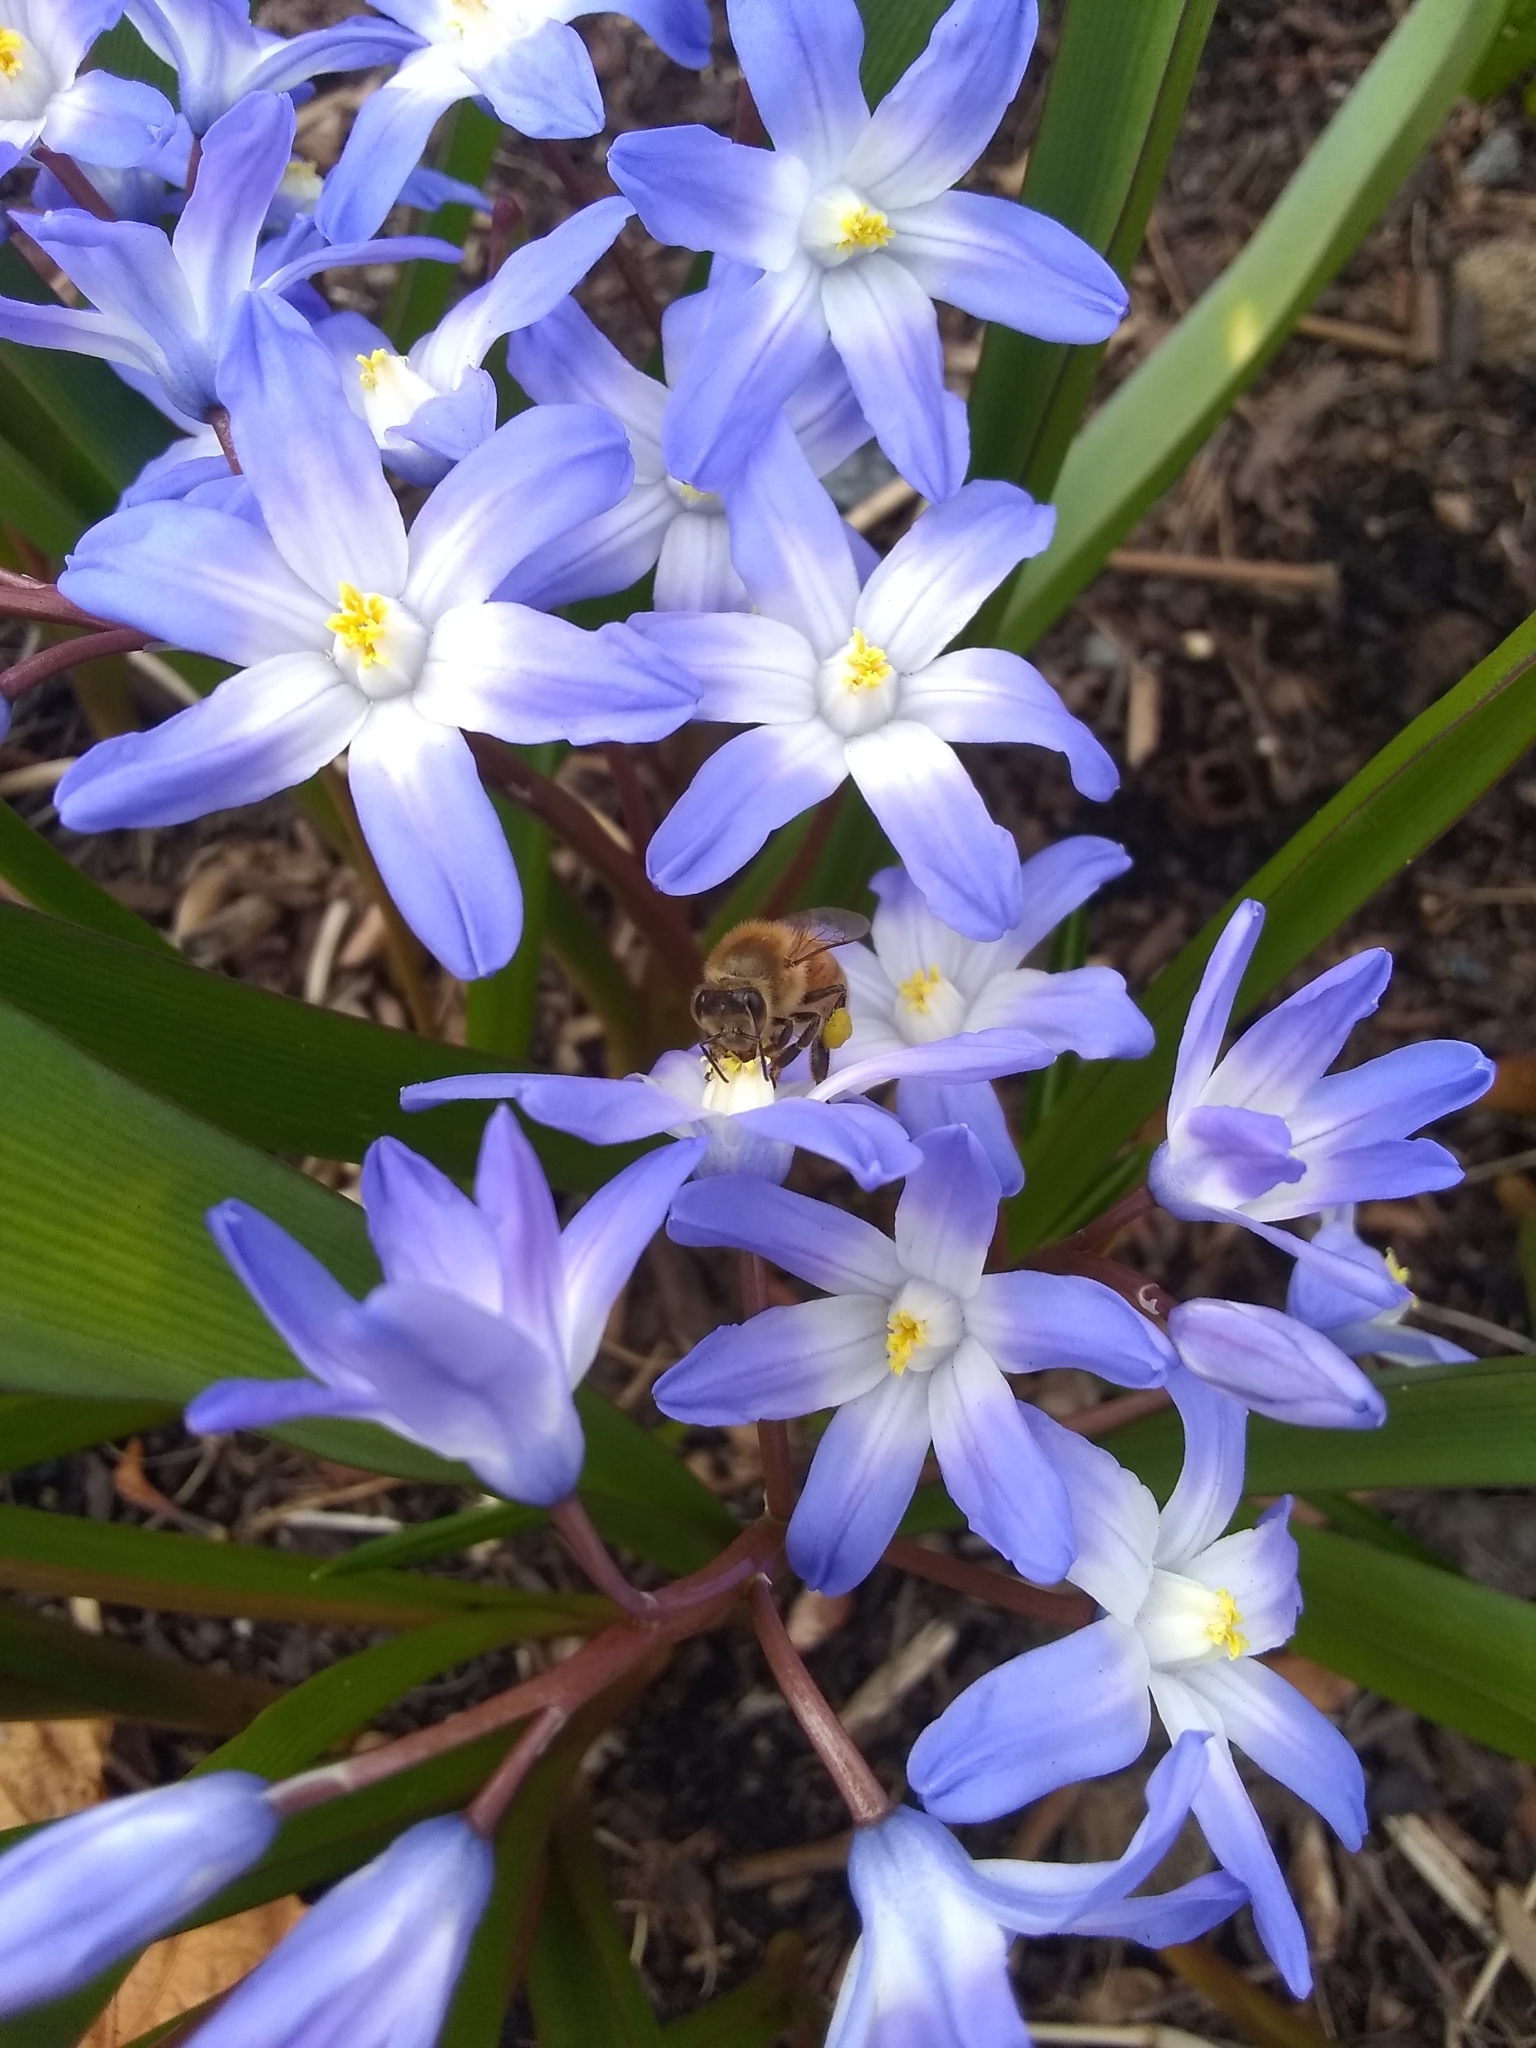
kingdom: Animalia
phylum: Arthropoda
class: Insecta
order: Hymenoptera
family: Apidae
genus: Apis
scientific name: Apis mellifera
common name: Honey bee
